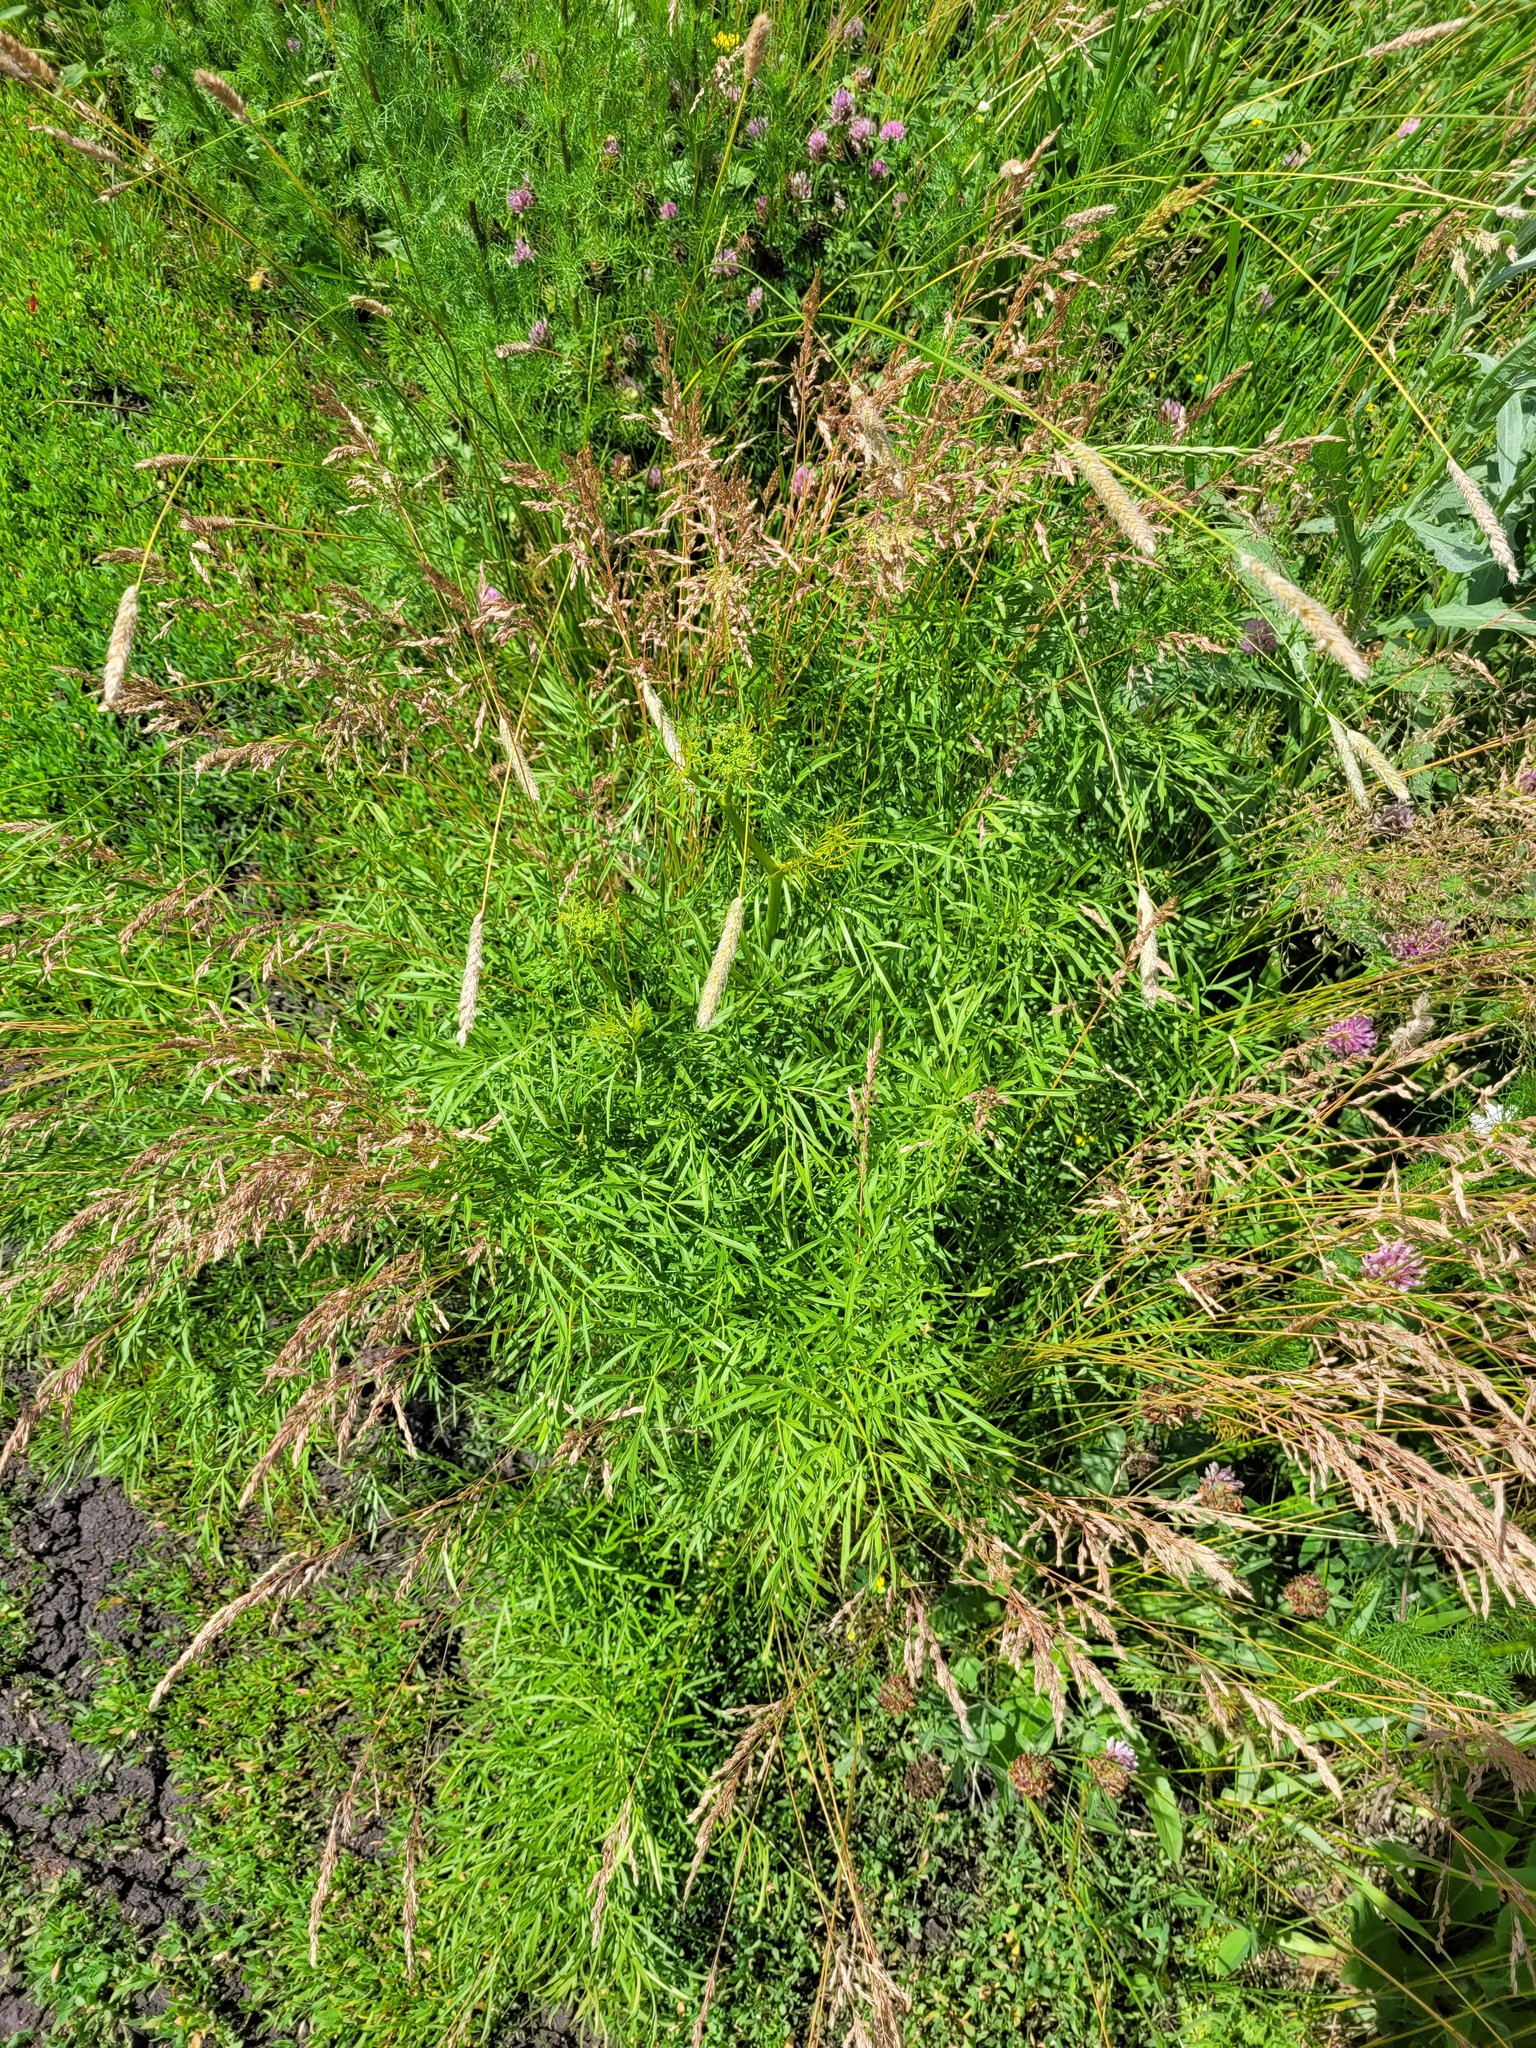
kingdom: Plantae
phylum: Tracheophyta
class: Magnoliopsida
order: Apiales
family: Apiaceae
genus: Silaum
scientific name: Silaum silaus
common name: Pepper-saxifrage
